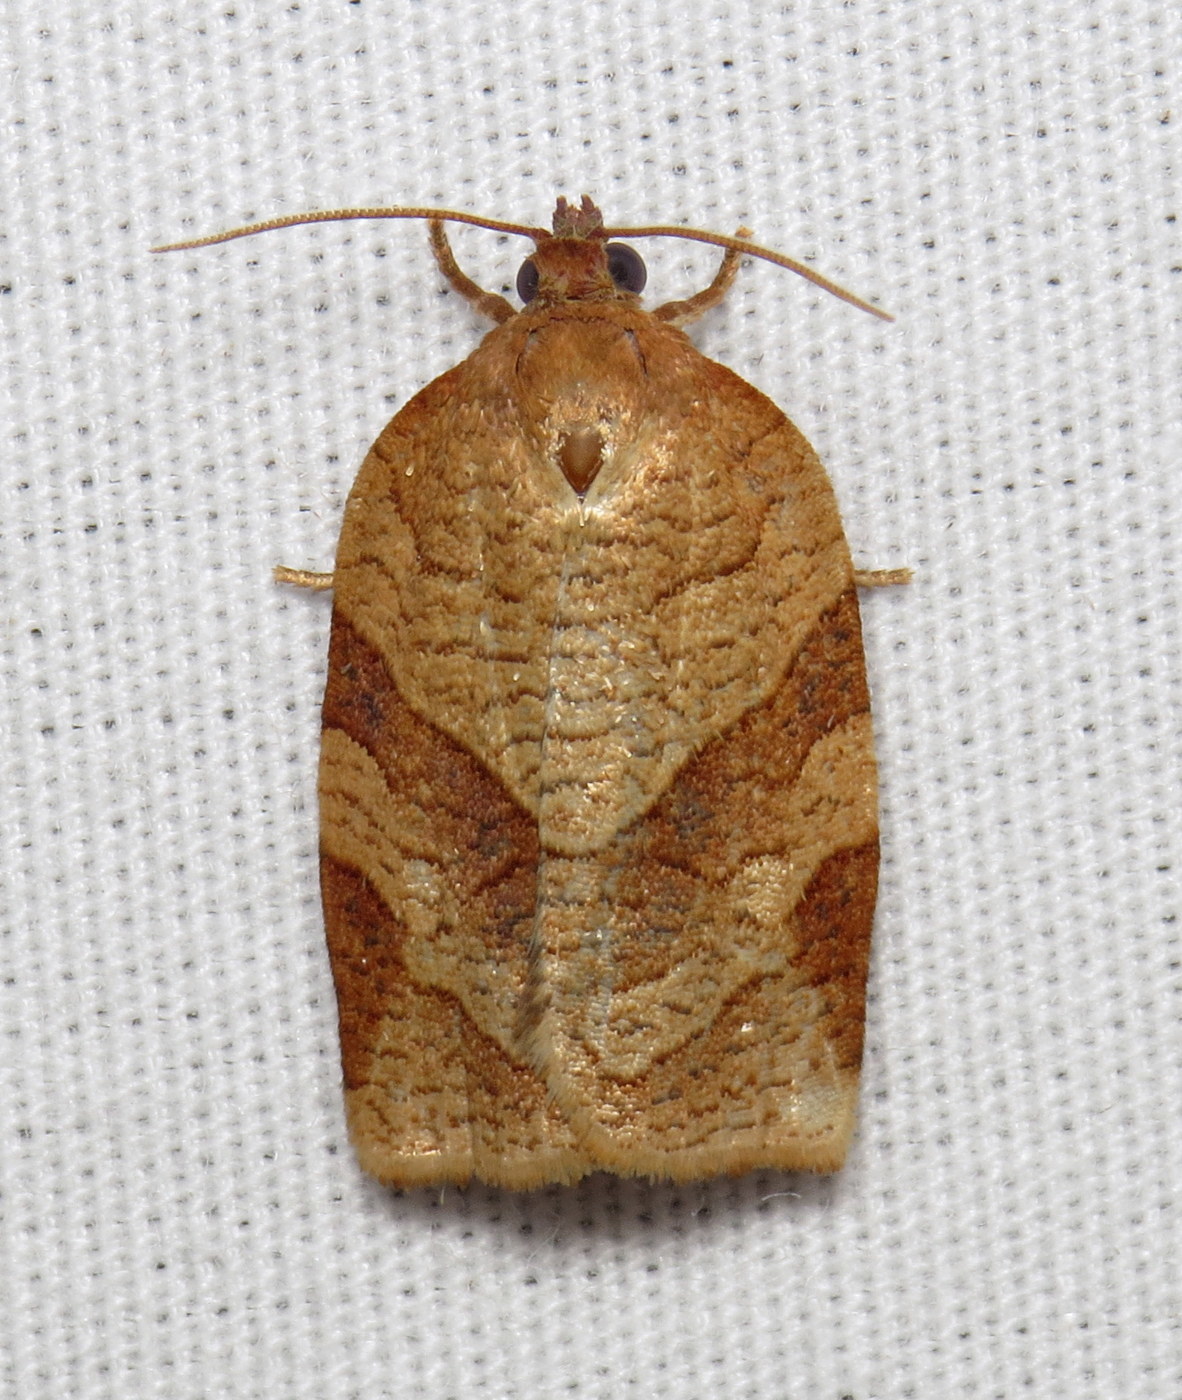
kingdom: Animalia
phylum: Arthropoda
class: Insecta
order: Lepidoptera
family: Tortricidae
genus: Choristoneura
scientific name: Choristoneura parallela
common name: Parallel-banded leafroller moth
